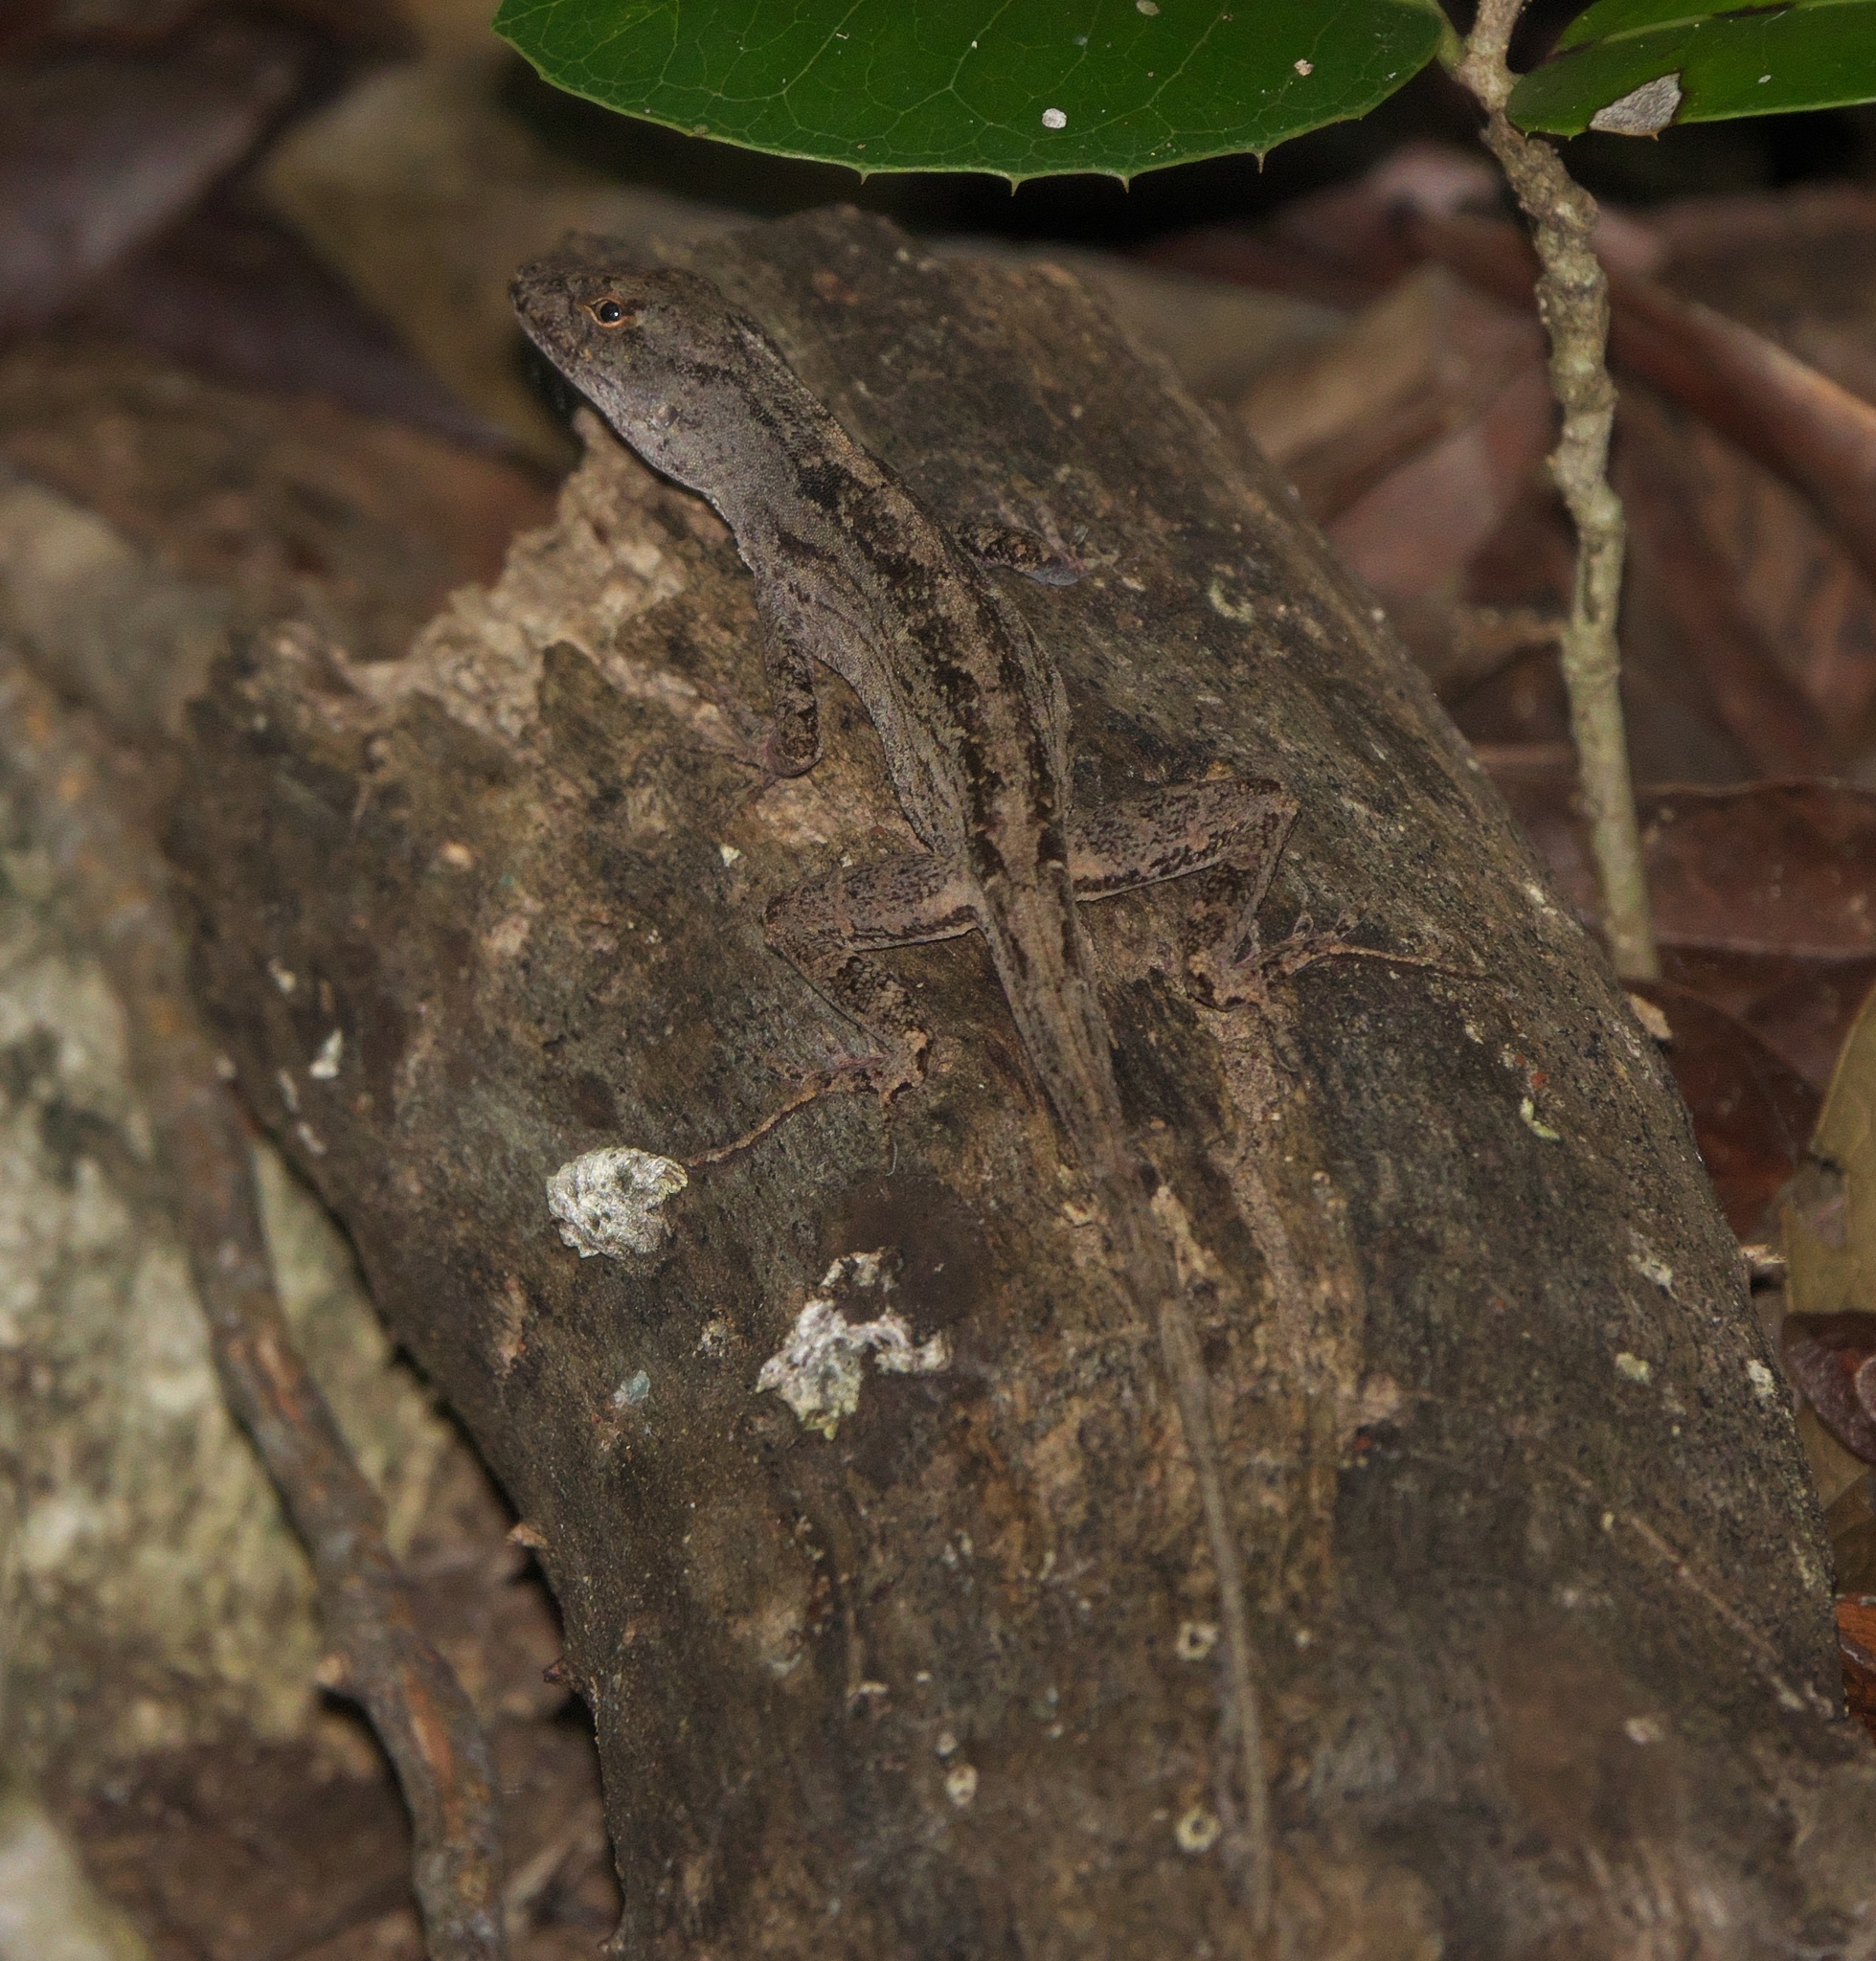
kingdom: Animalia
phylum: Chordata
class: Squamata
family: Dactyloidae
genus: Anolis
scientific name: Anolis sagrei
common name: Brown anole
